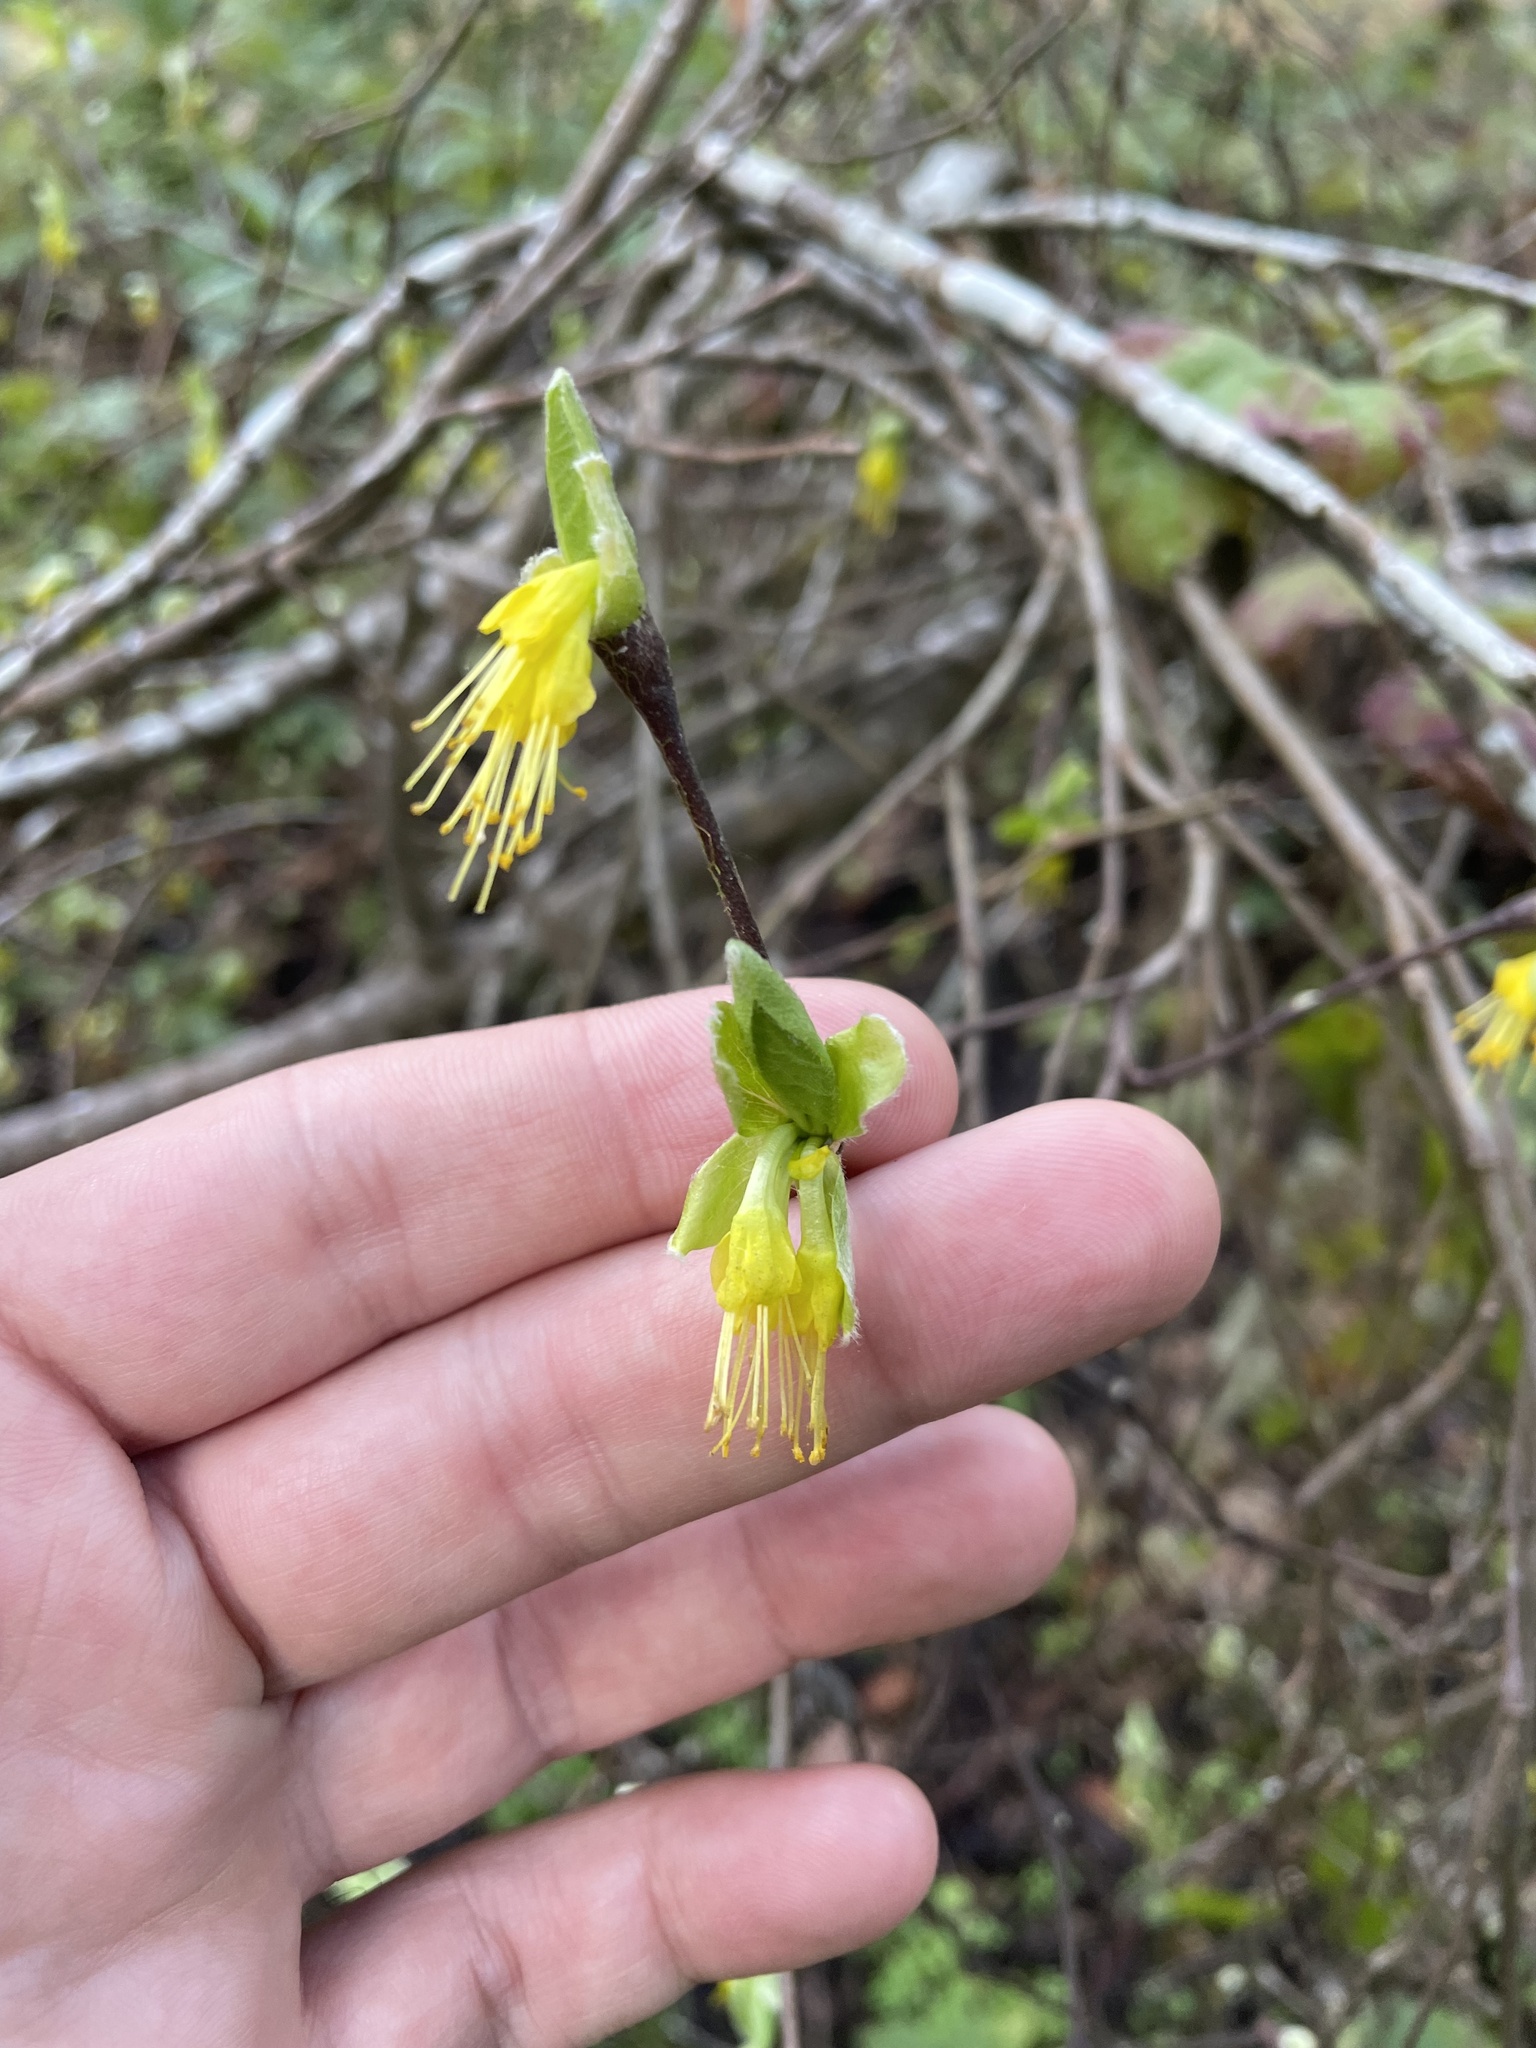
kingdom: Plantae
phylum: Tracheophyta
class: Magnoliopsida
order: Malvales
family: Thymelaeaceae
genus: Dirca
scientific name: Dirca occidentalis
